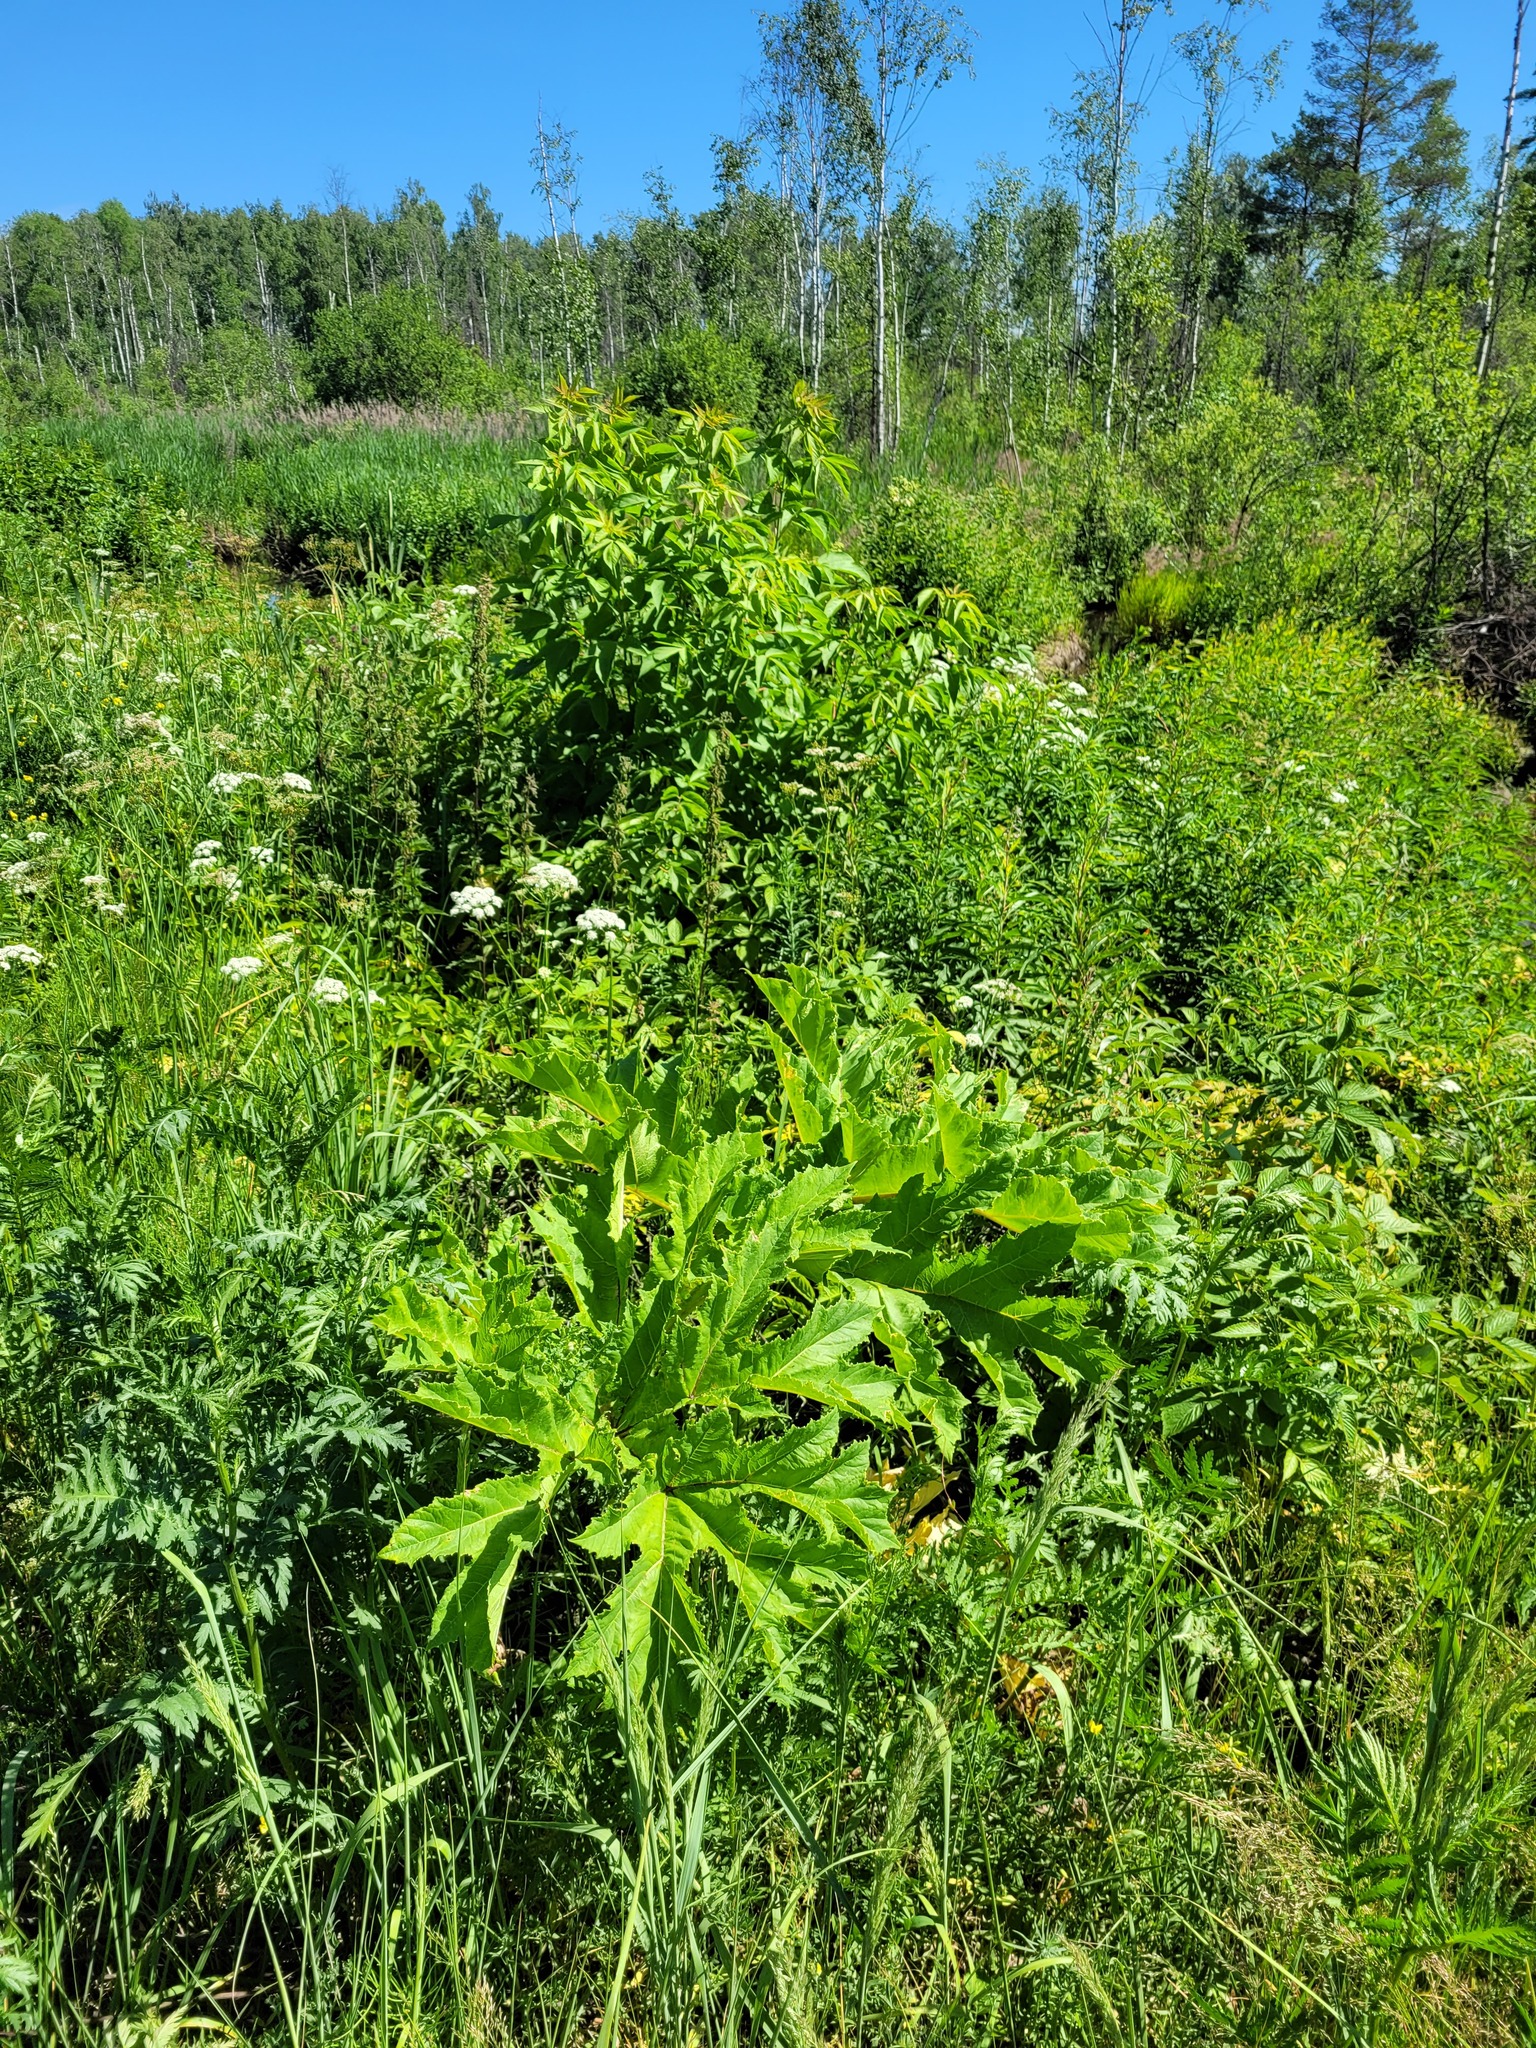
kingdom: Plantae
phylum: Tracheophyta
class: Magnoliopsida
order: Apiales
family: Apiaceae
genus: Heracleum
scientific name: Heracleum sosnowskyi
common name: Sosnowsky's hogweed
